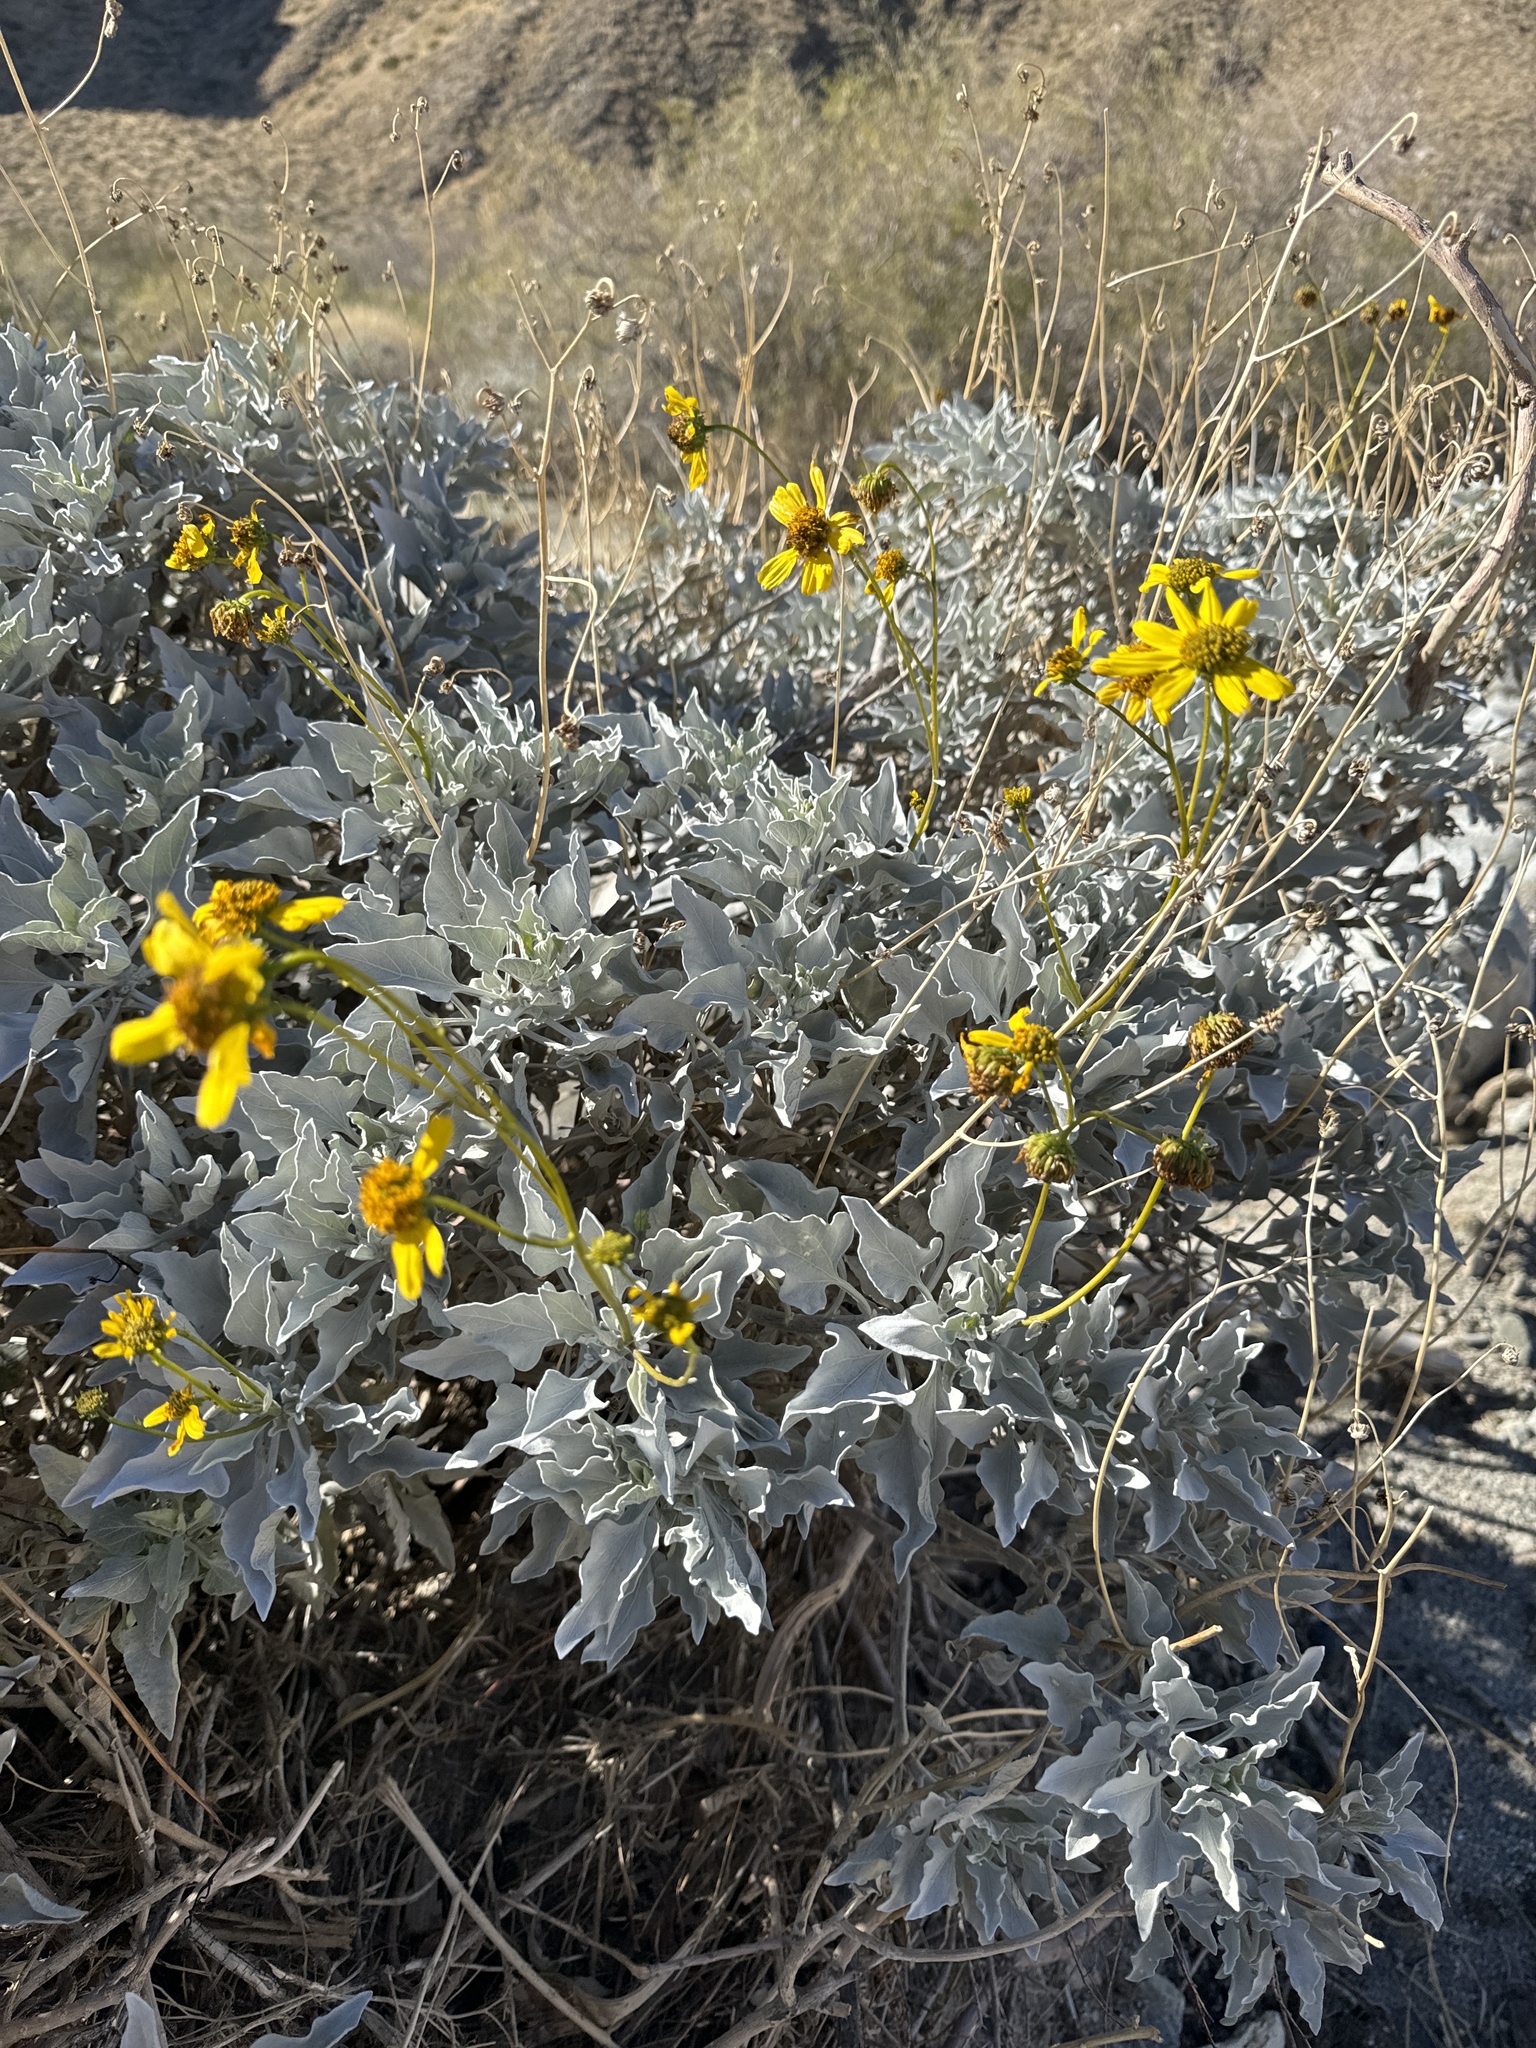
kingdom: Plantae
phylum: Tracheophyta
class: Magnoliopsida
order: Asterales
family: Asteraceae
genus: Encelia
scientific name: Encelia farinosa
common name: Brittlebush
